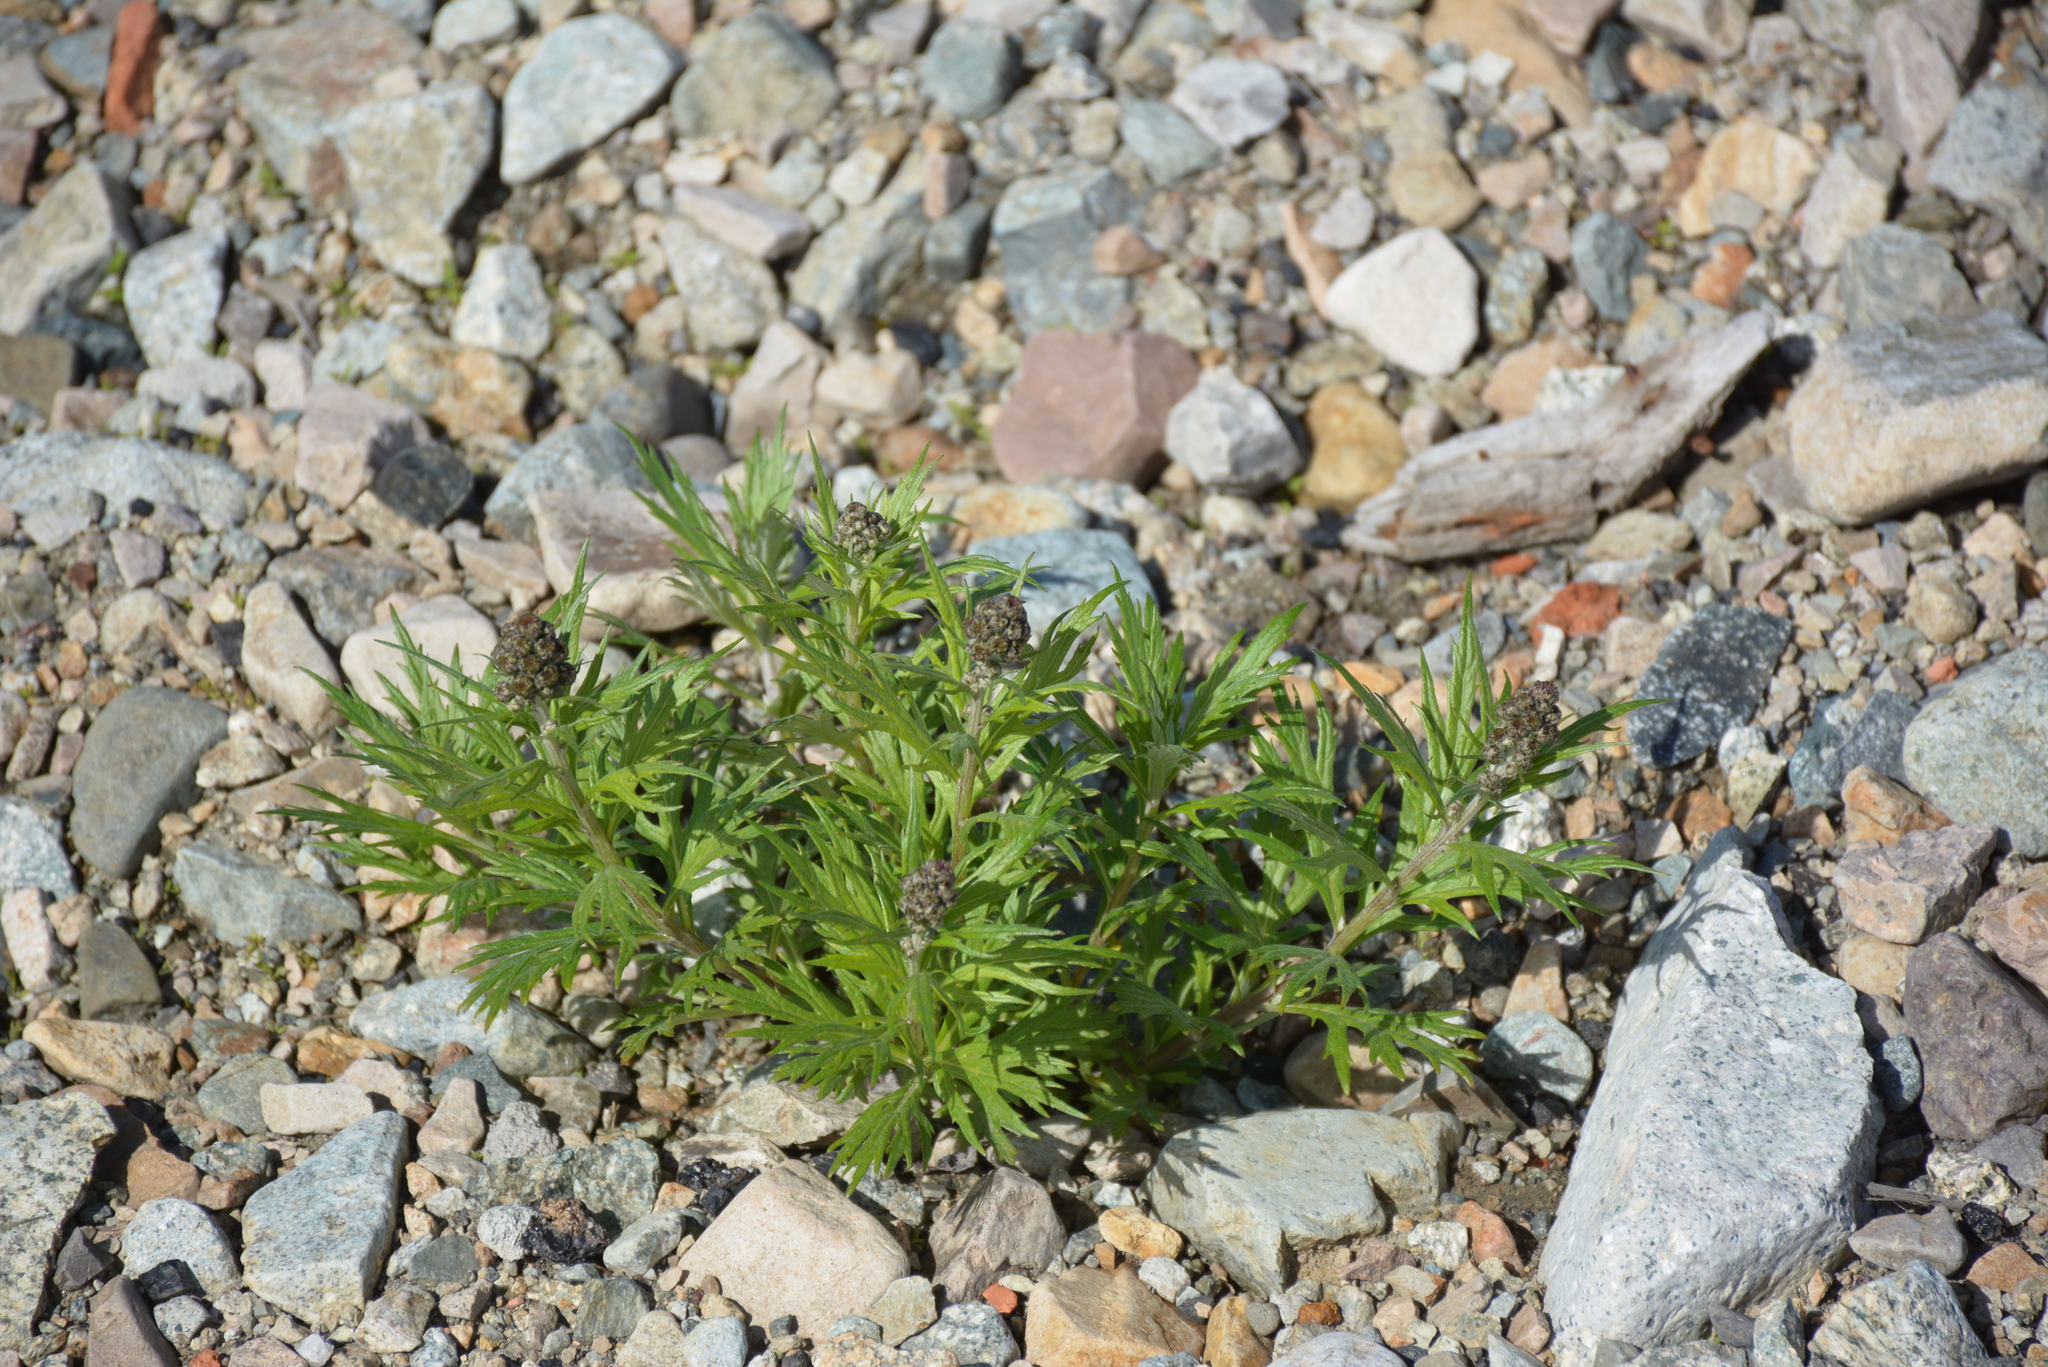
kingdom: Plantae
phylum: Tracheophyta
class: Magnoliopsida
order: Asterales
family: Asteraceae
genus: Artemisia
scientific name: Artemisia tilesii
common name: Aleutian mugwort
